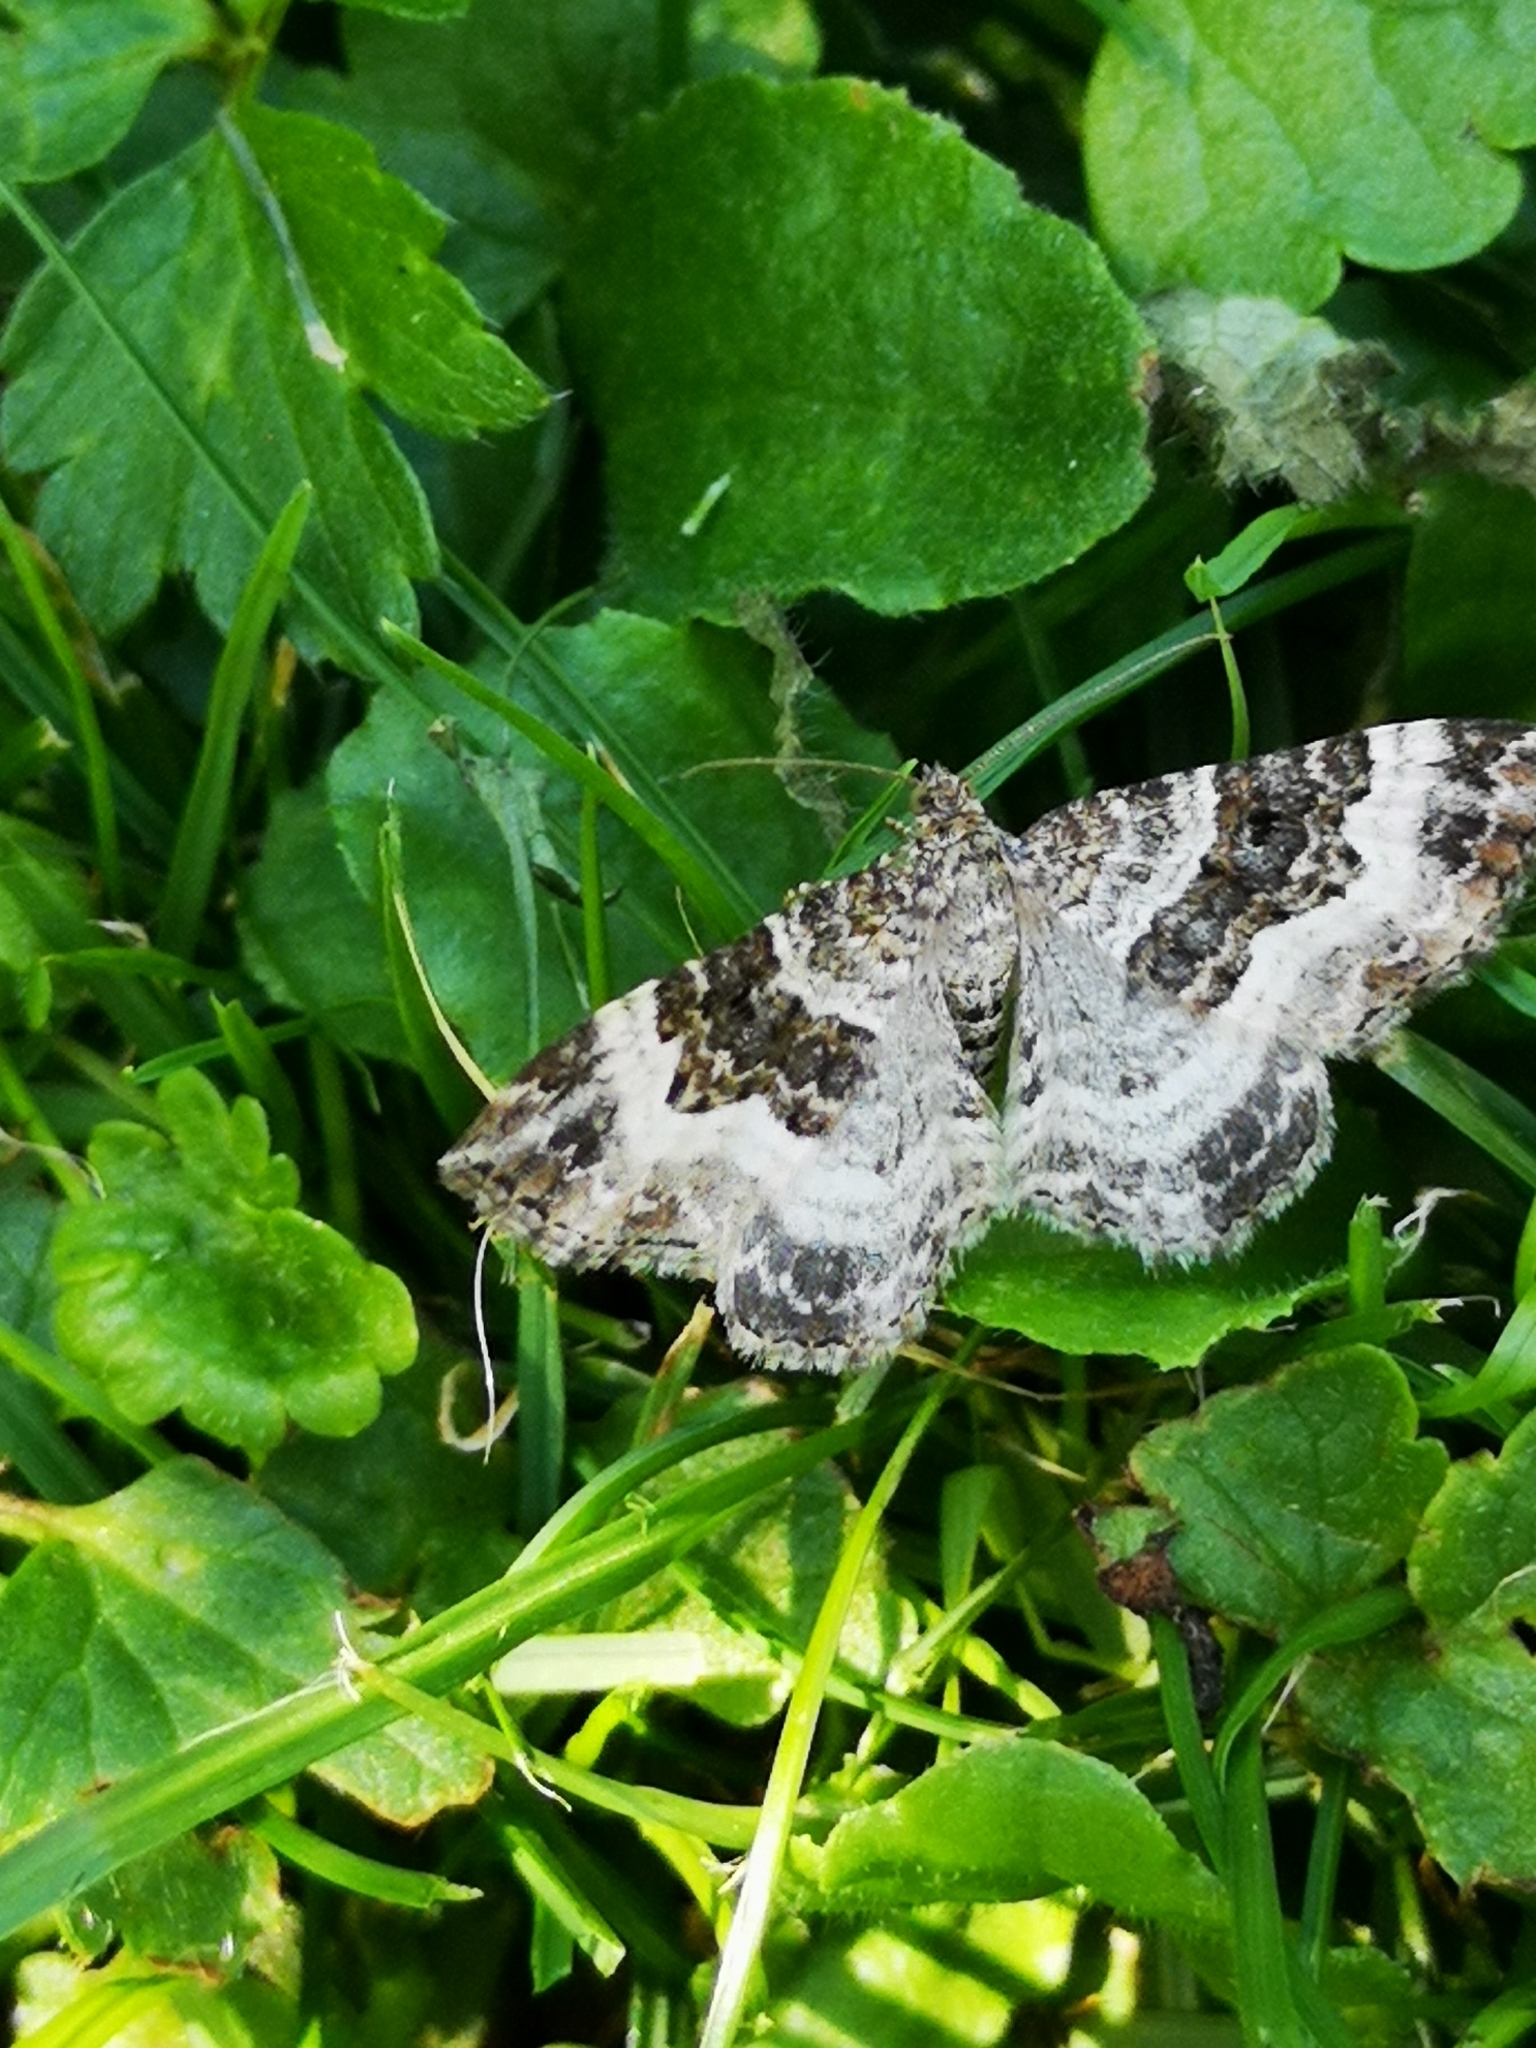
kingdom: Animalia
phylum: Arthropoda
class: Insecta
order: Lepidoptera
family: Geometridae
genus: Epirrhoe
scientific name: Epirrhoe alternata
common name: Common carpet
